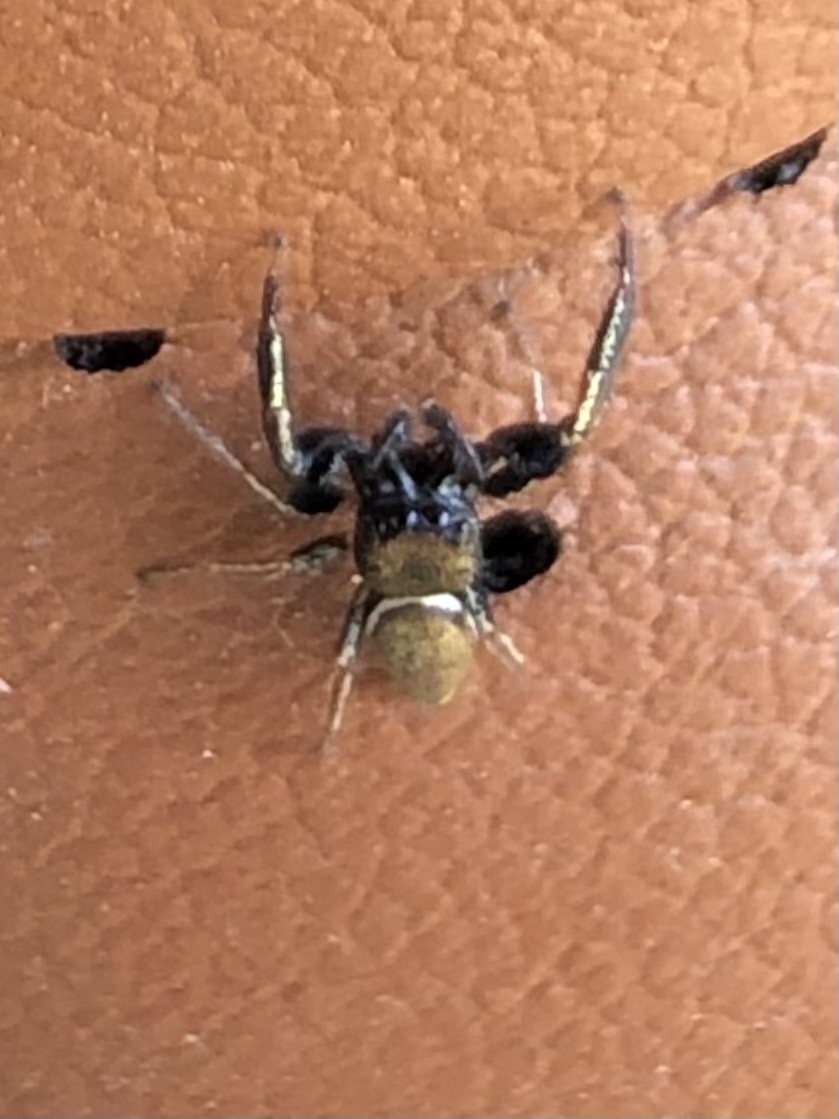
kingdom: Animalia
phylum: Arthropoda
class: Arachnida
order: Araneae
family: Salticidae
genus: Sassacus
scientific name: Sassacus vitis
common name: Jumping spiders
